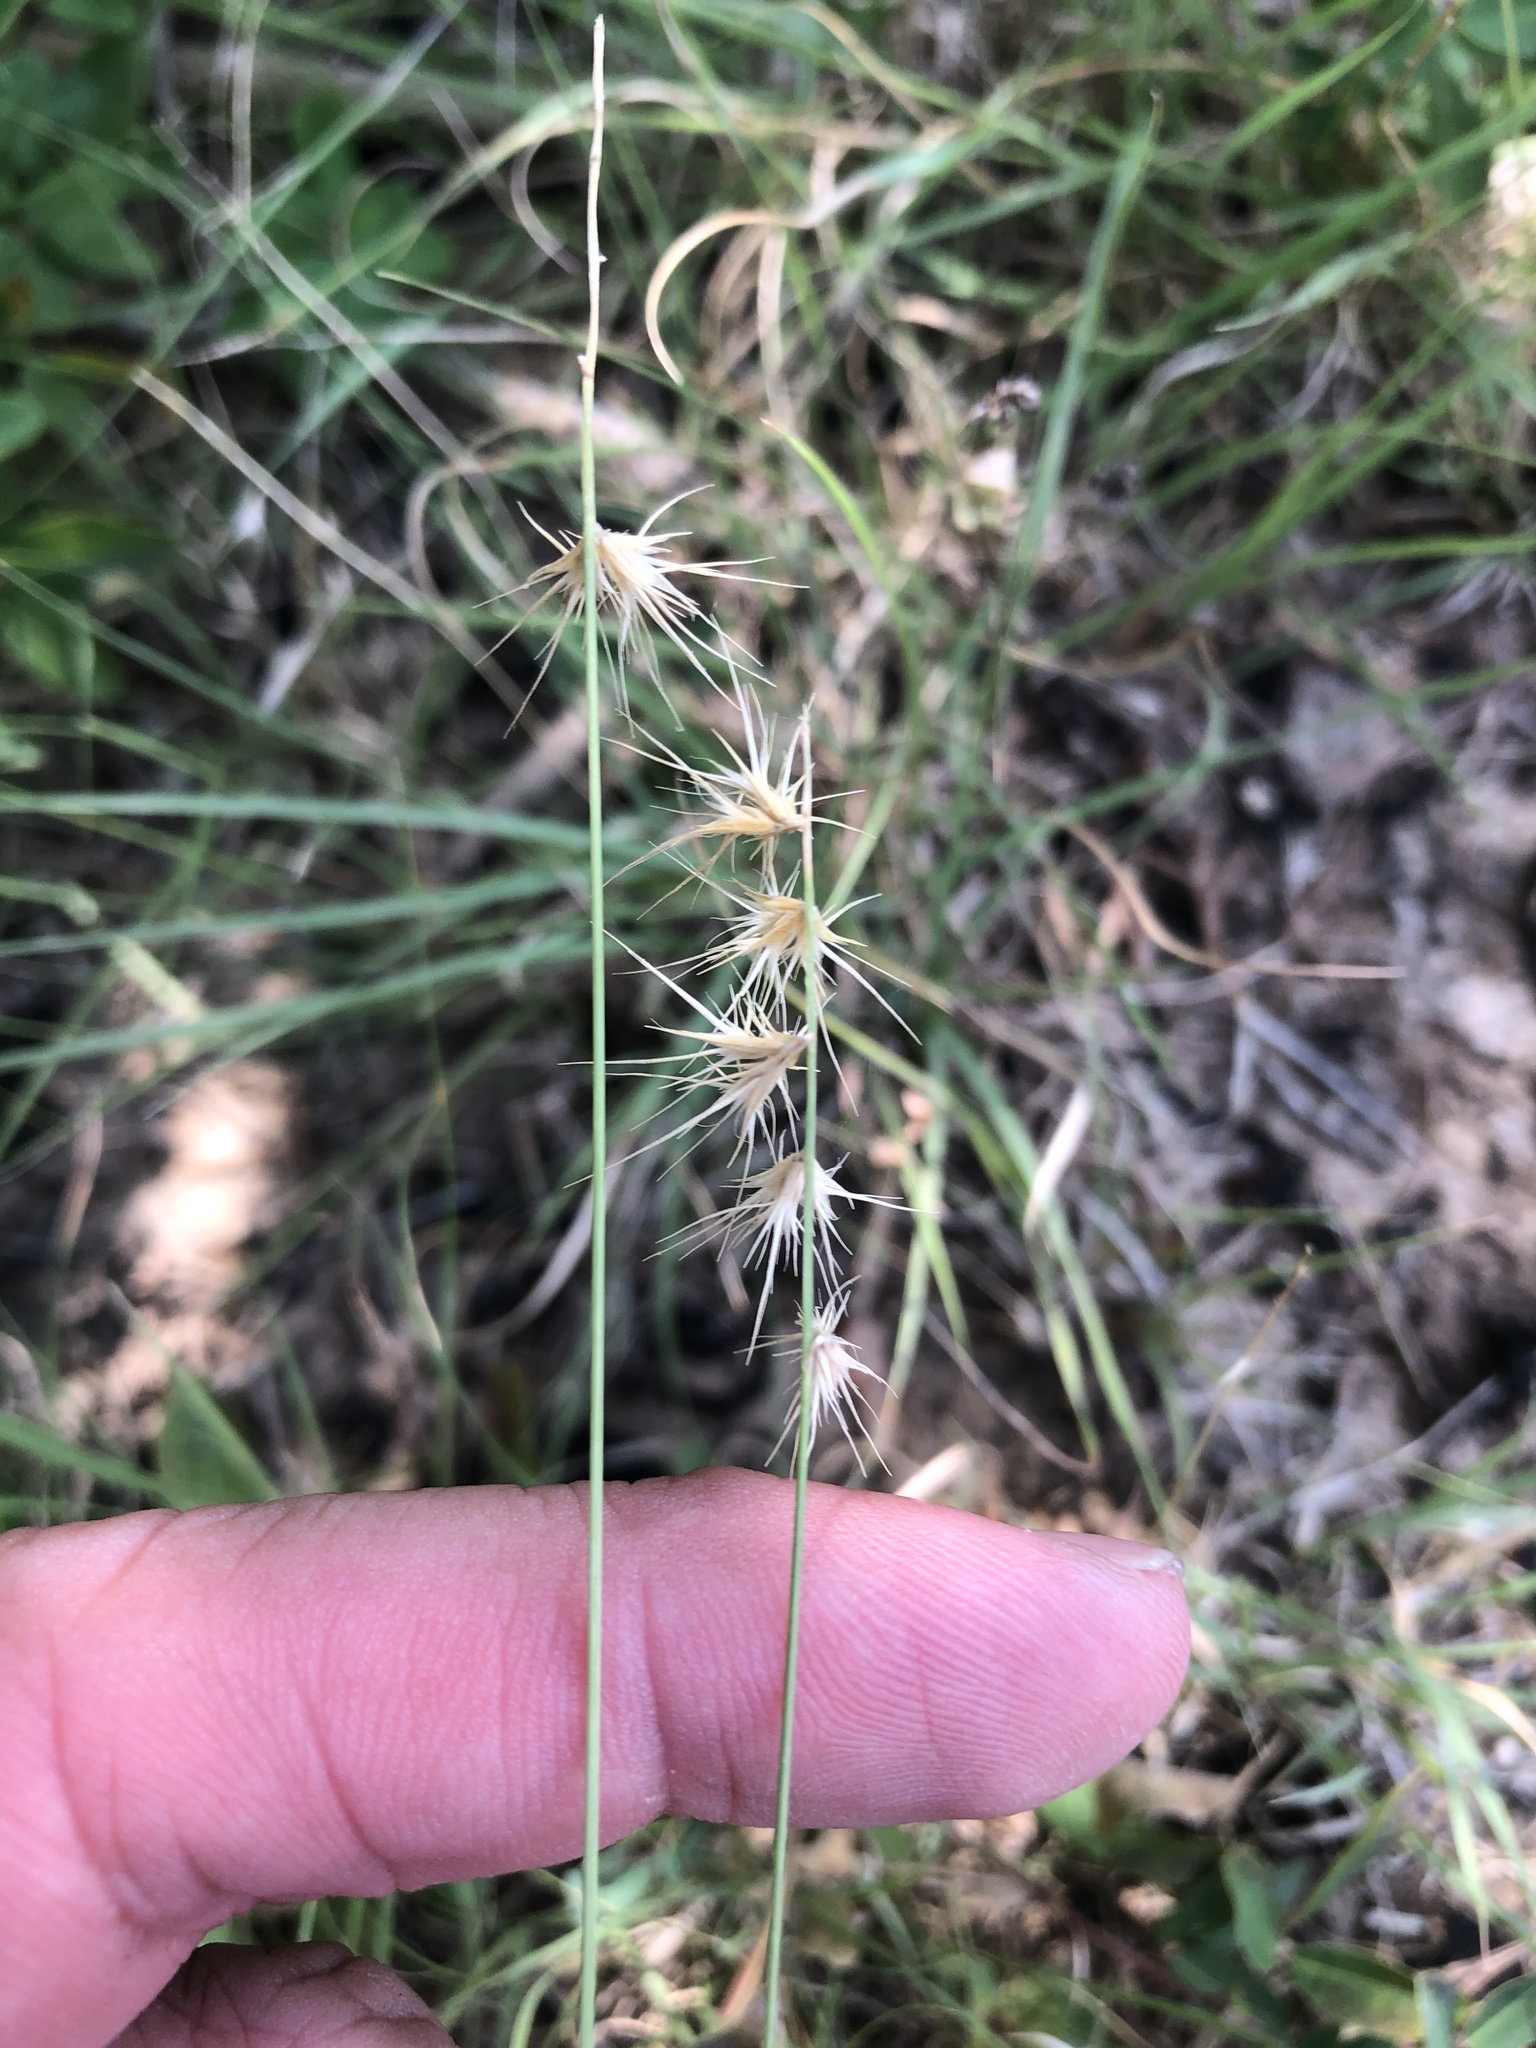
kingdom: Plantae
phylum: Tracheophyta
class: Liliopsida
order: Poales
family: Poaceae
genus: Bouteloua
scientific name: Bouteloua rigidiseta
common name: Texas grama
